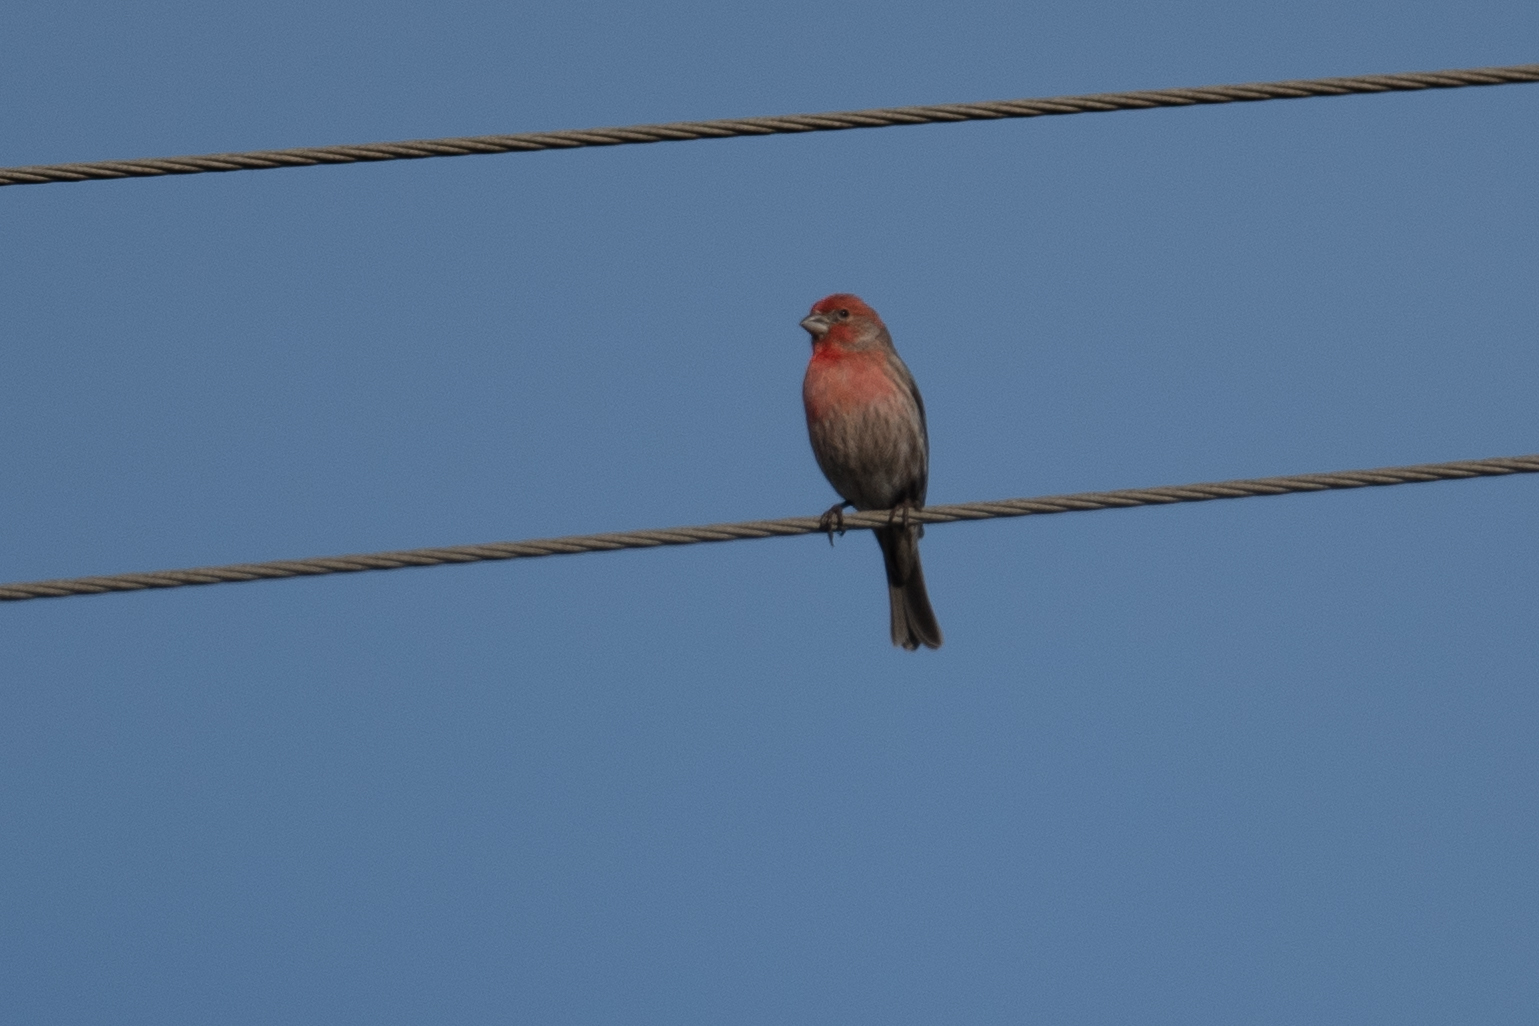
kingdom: Animalia
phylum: Chordata
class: Aves
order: Passeriformes
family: Fringillidae
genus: Haemorhous
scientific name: Haemorhous mexicanus
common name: House finch
